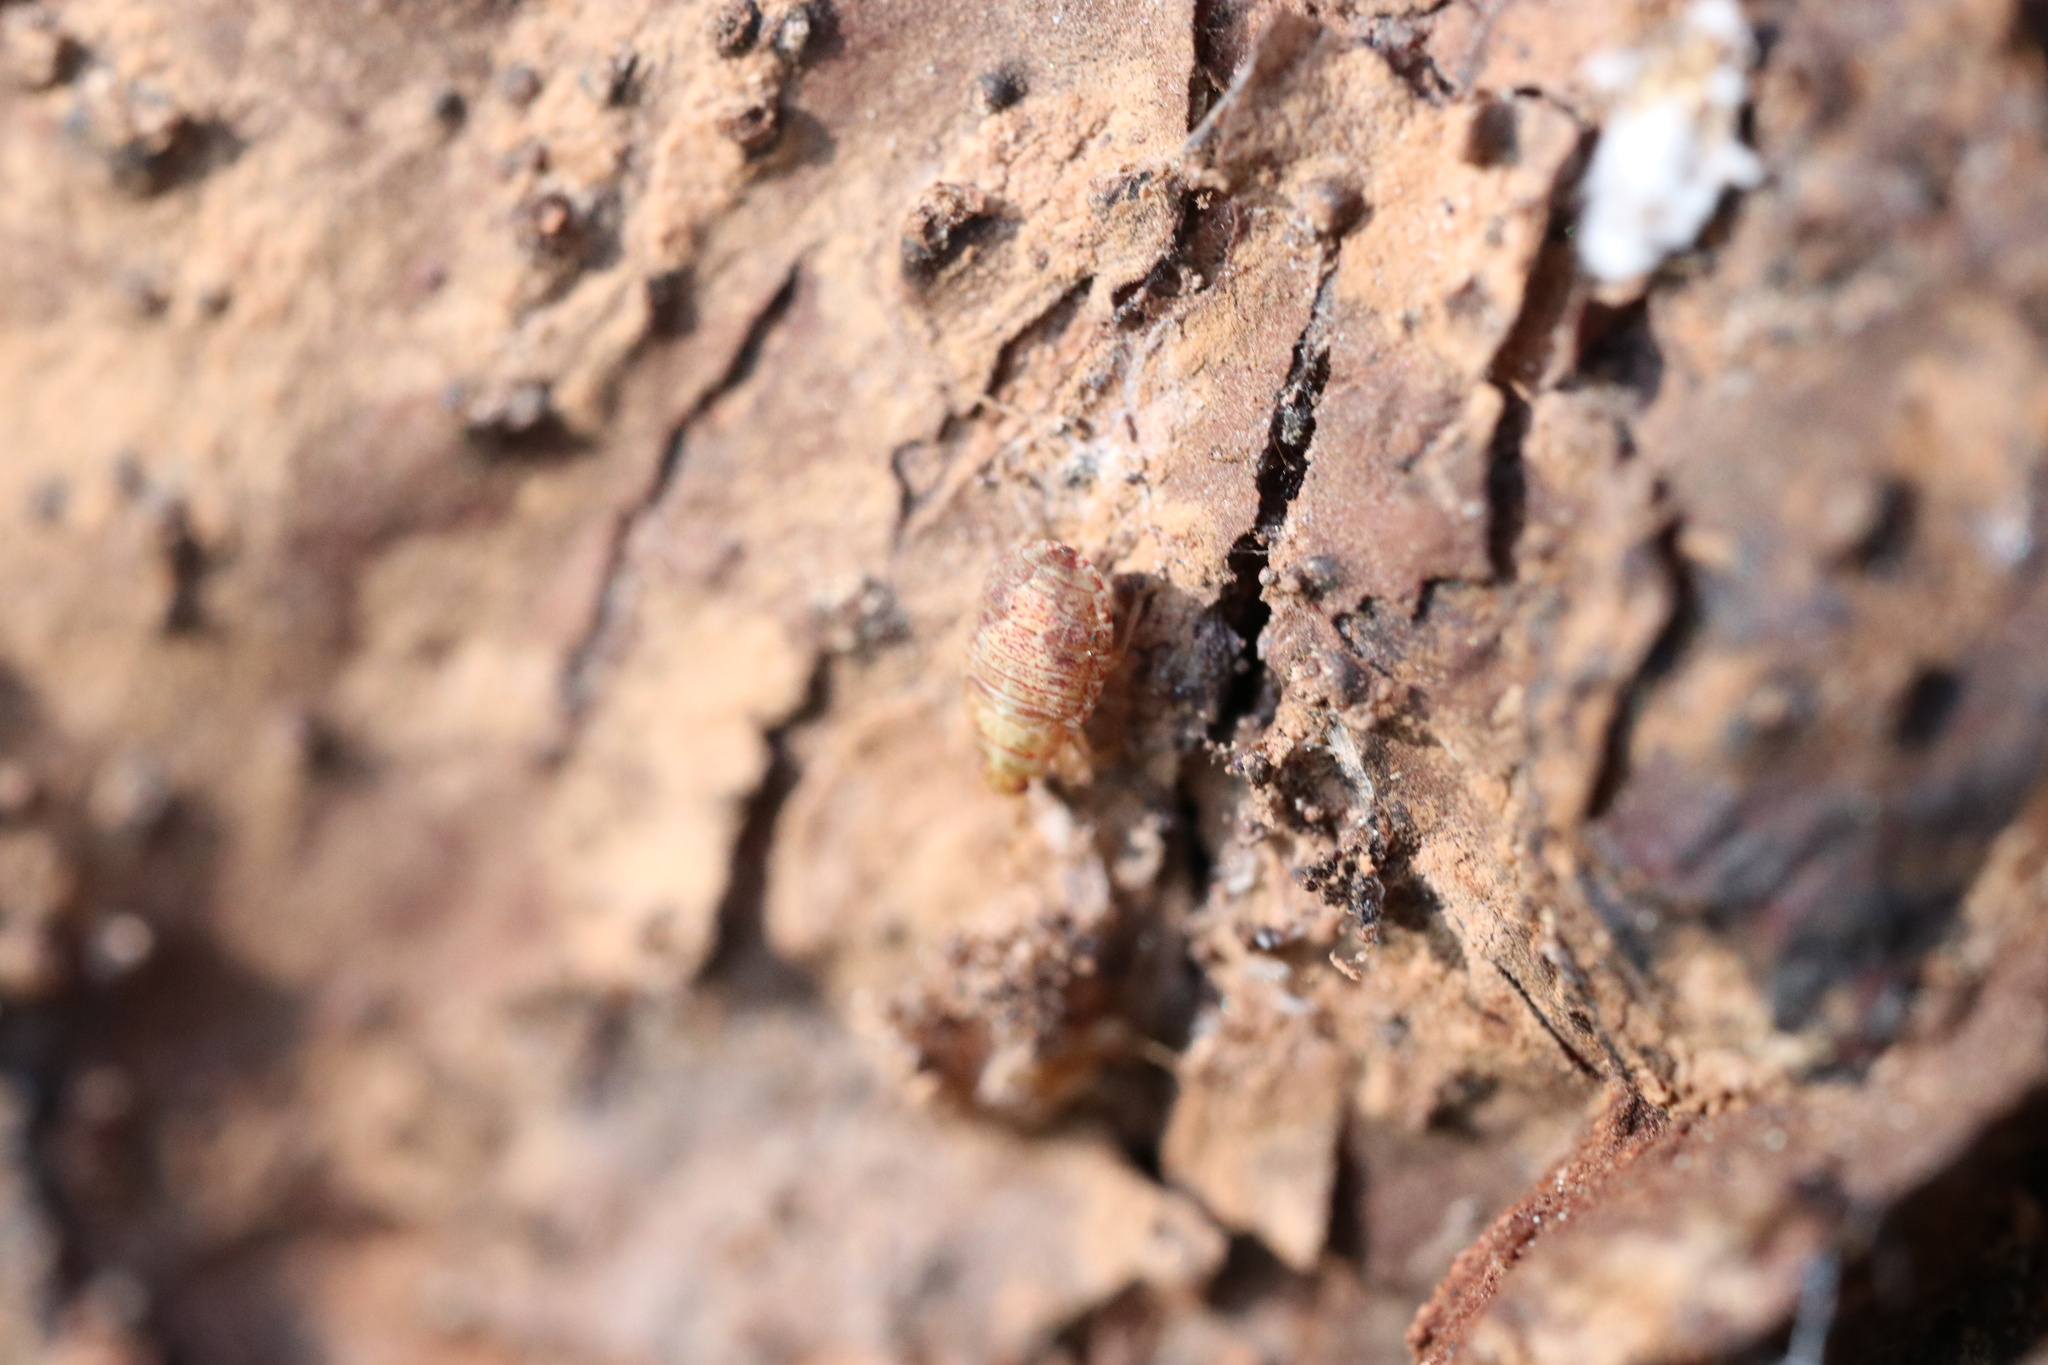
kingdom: Animalia
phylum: Arthropoda
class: Insecta
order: Hemiptera
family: Lygaeidae
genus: Syzygitis
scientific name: Syzygitis poecilus
